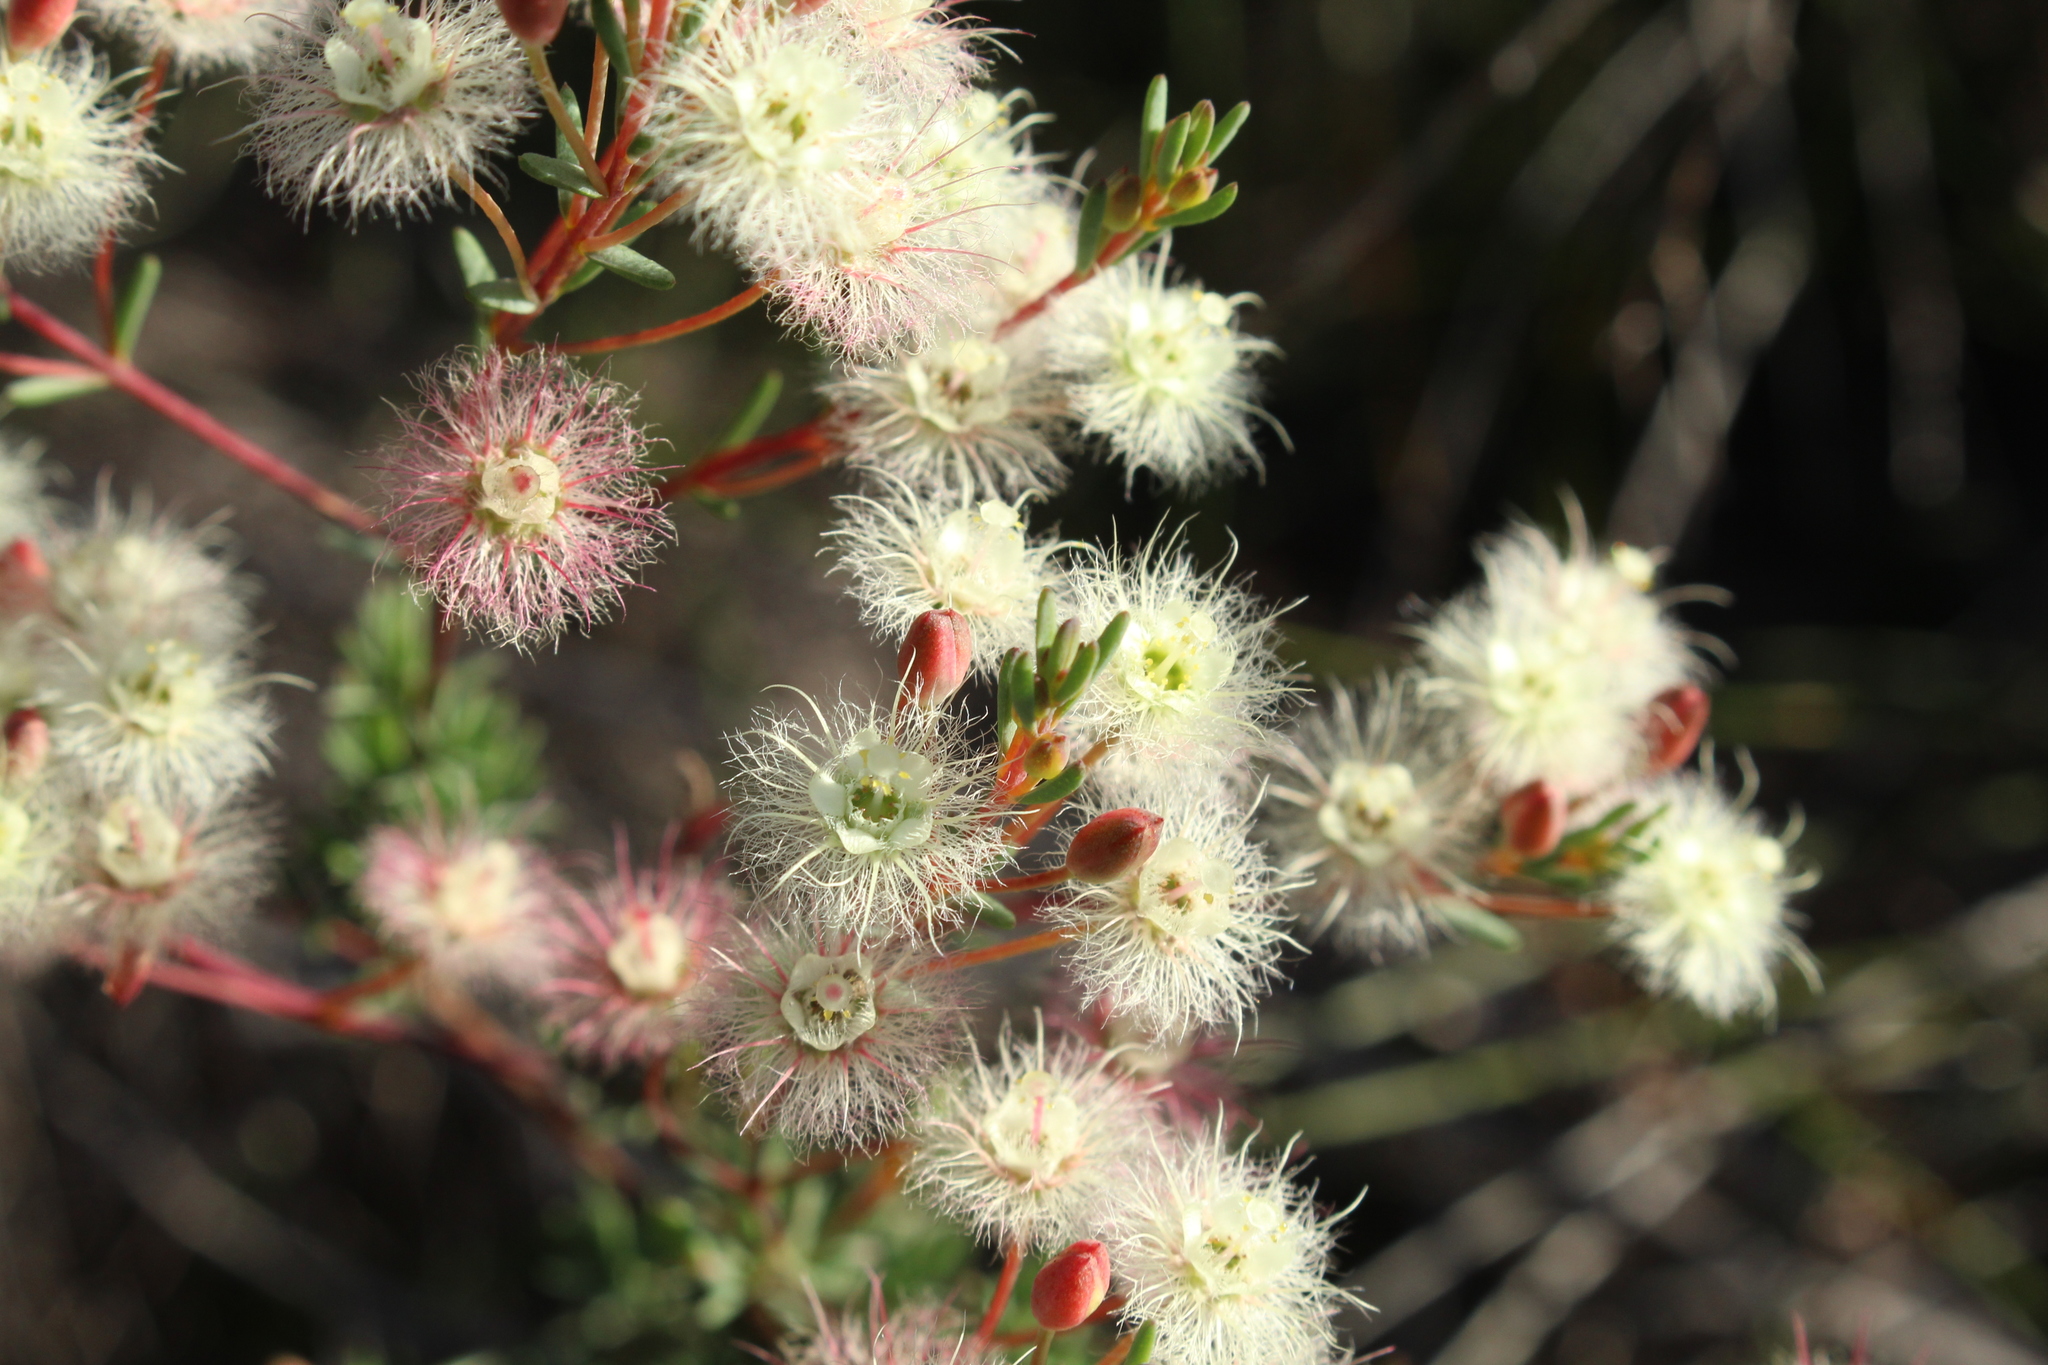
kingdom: Plantae
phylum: Tracheophyta
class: Magnoliopsida
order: Myrtales
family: Myrtaceae
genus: Verticordia
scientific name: Verticordia huegelii
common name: Variegate feather-flower
